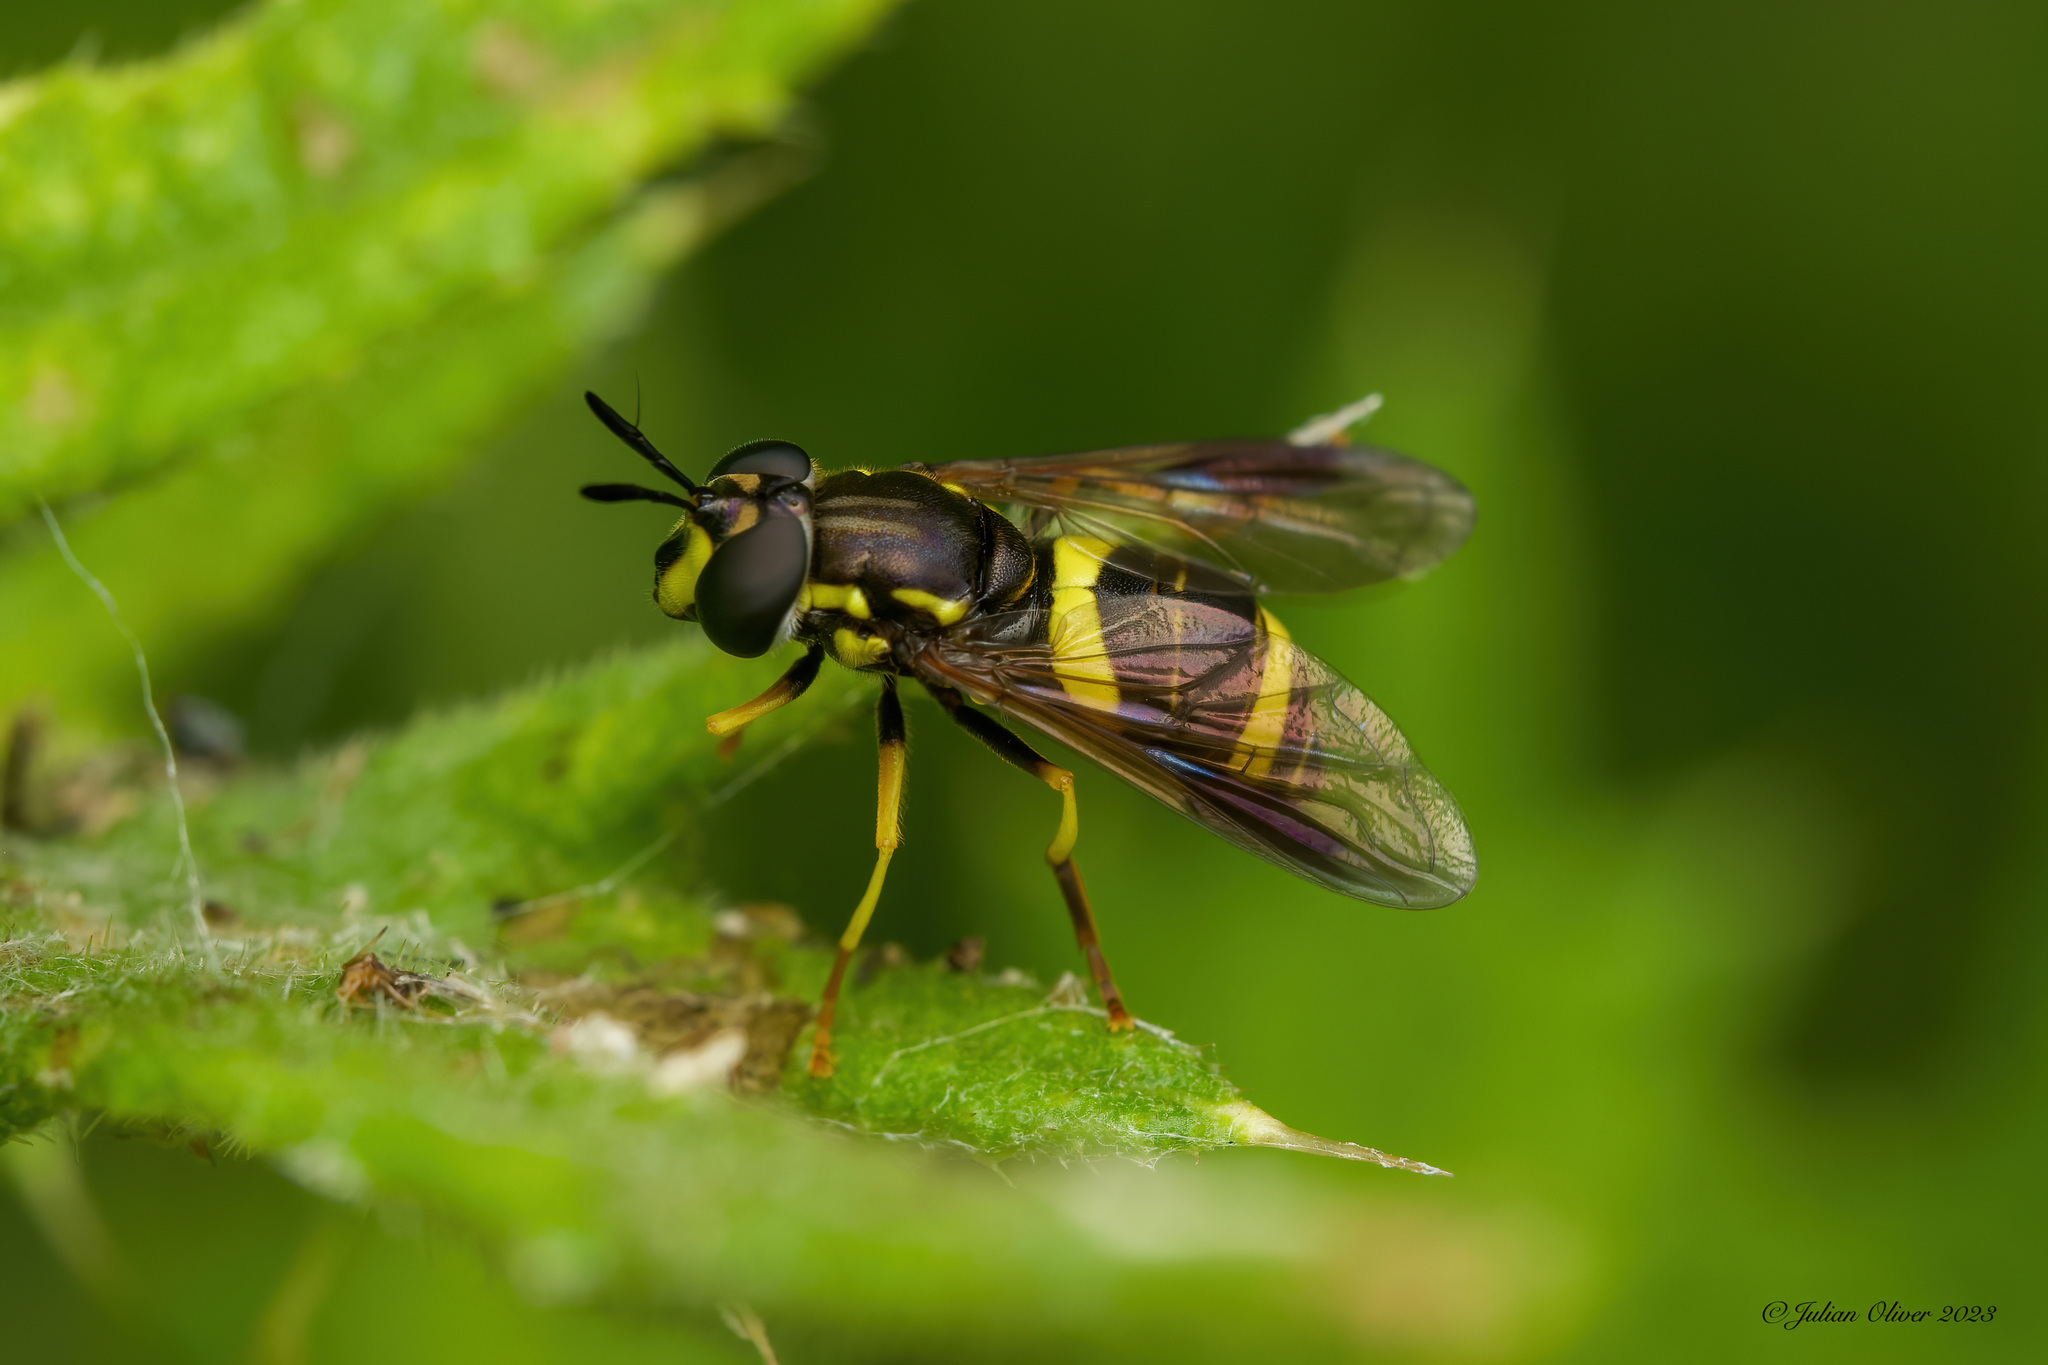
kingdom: Animalia
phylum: Arthropoda
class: Insecta
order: Diptera
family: Syrphidae
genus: Chrysotoxum
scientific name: Chrysotoxum bicincta
